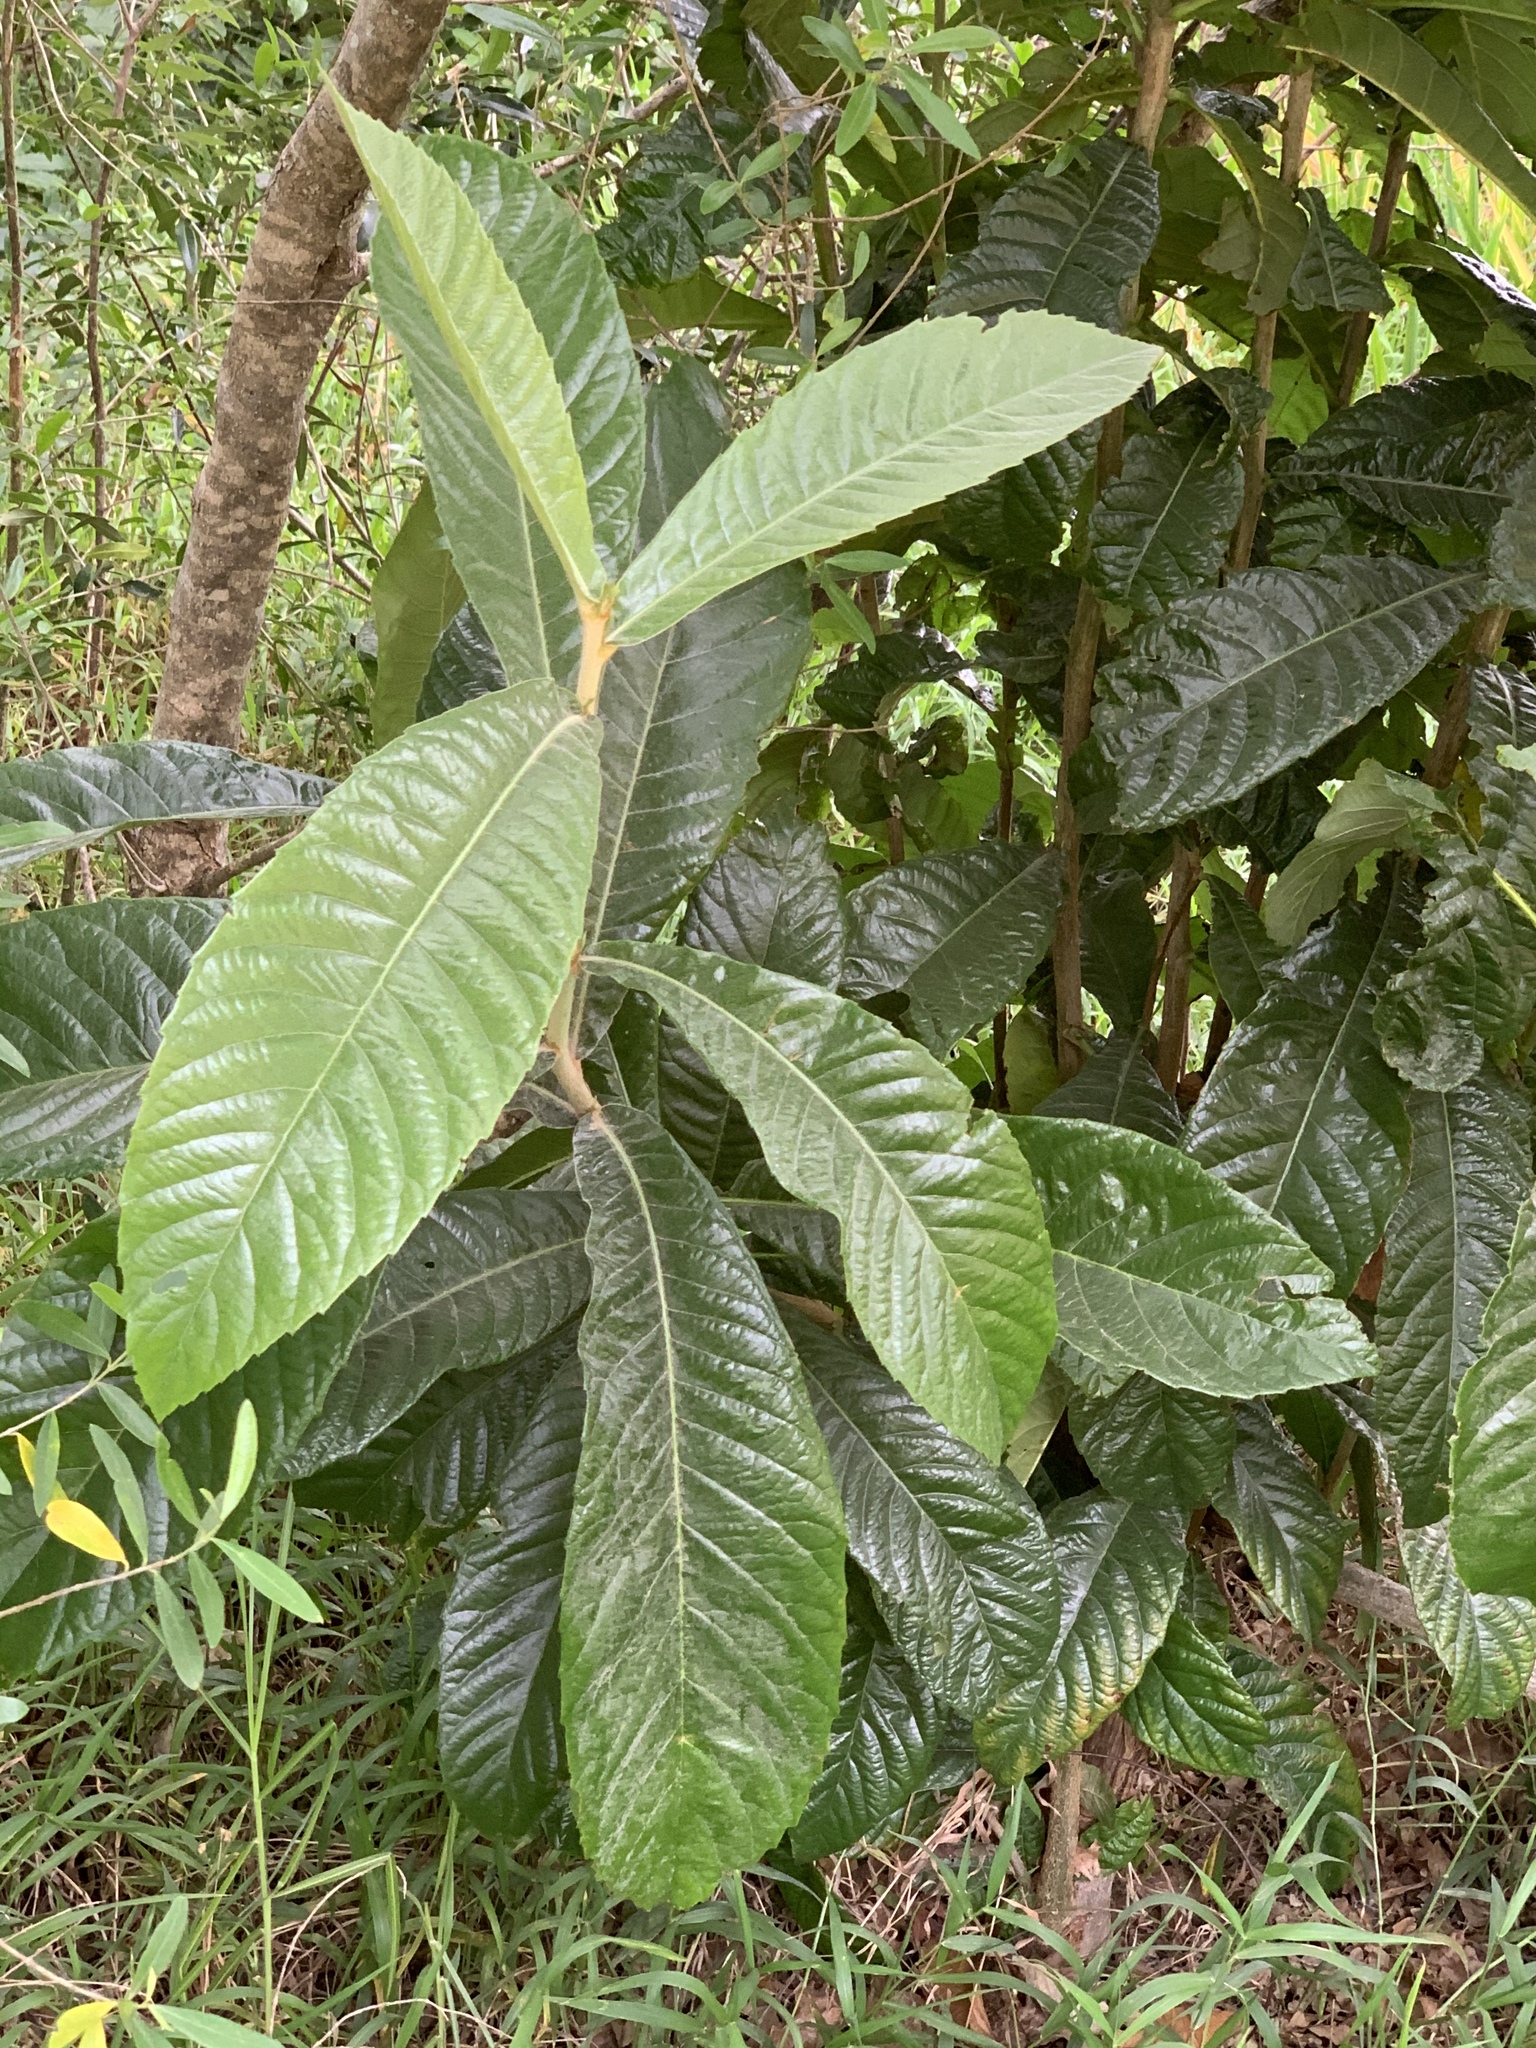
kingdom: Plantae
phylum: Tracheophyta
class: Magnoliopsida
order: Rosales
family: Rosaceae
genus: Rhaphiolepis
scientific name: Rhaphiolepis bibas
